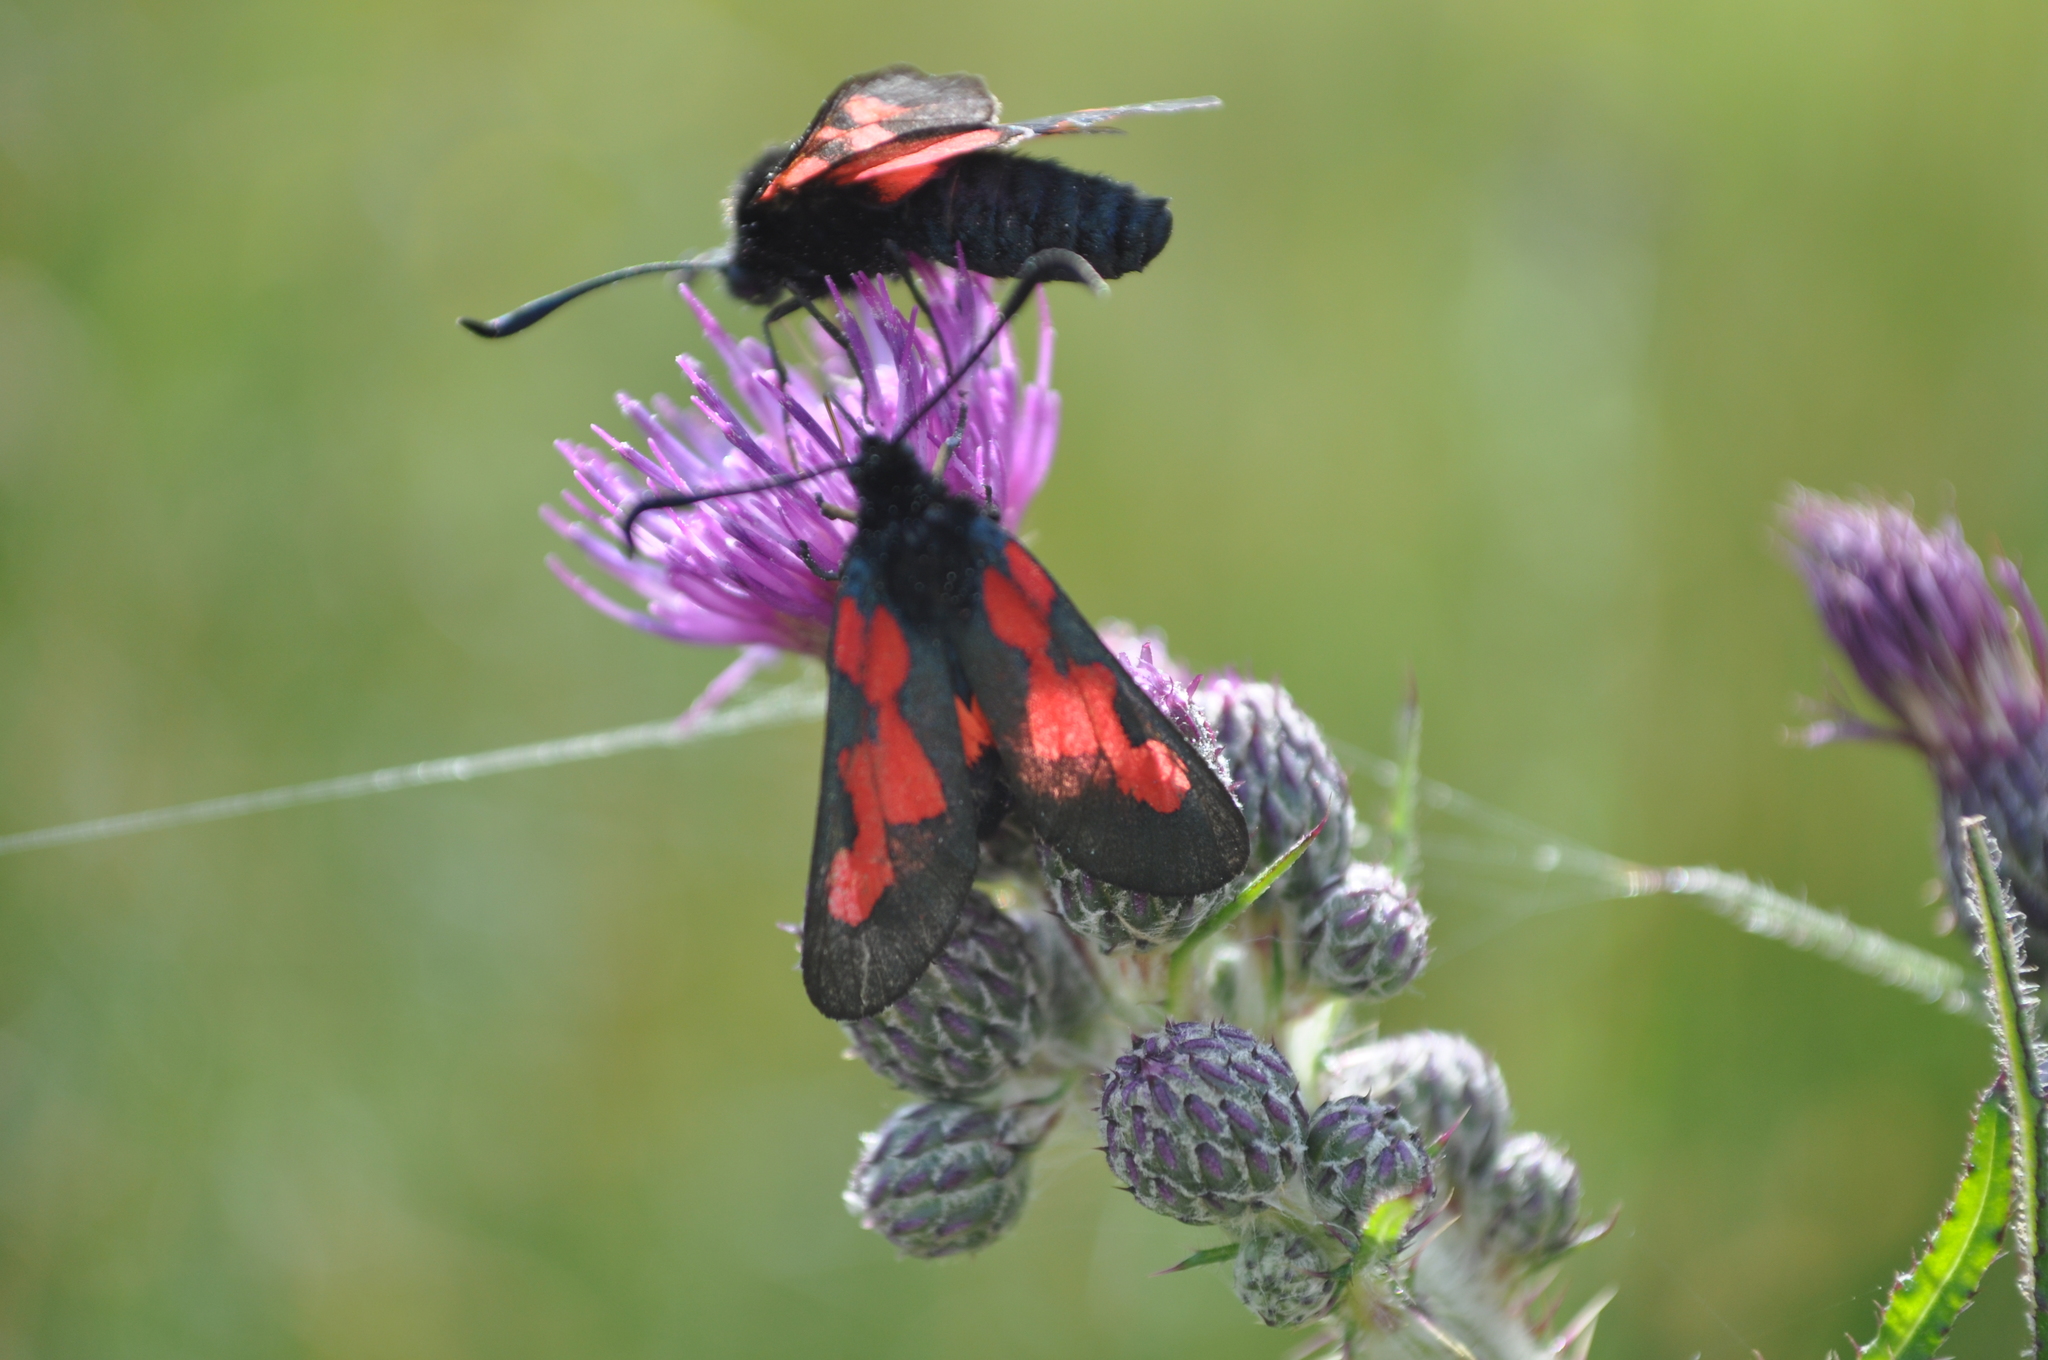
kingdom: Animalia
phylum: Arthropoda
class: Insecta
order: Lepidoptera
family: Zygaenidae
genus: Zygaena
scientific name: Zygaena trifolii
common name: Five-spot burnet
